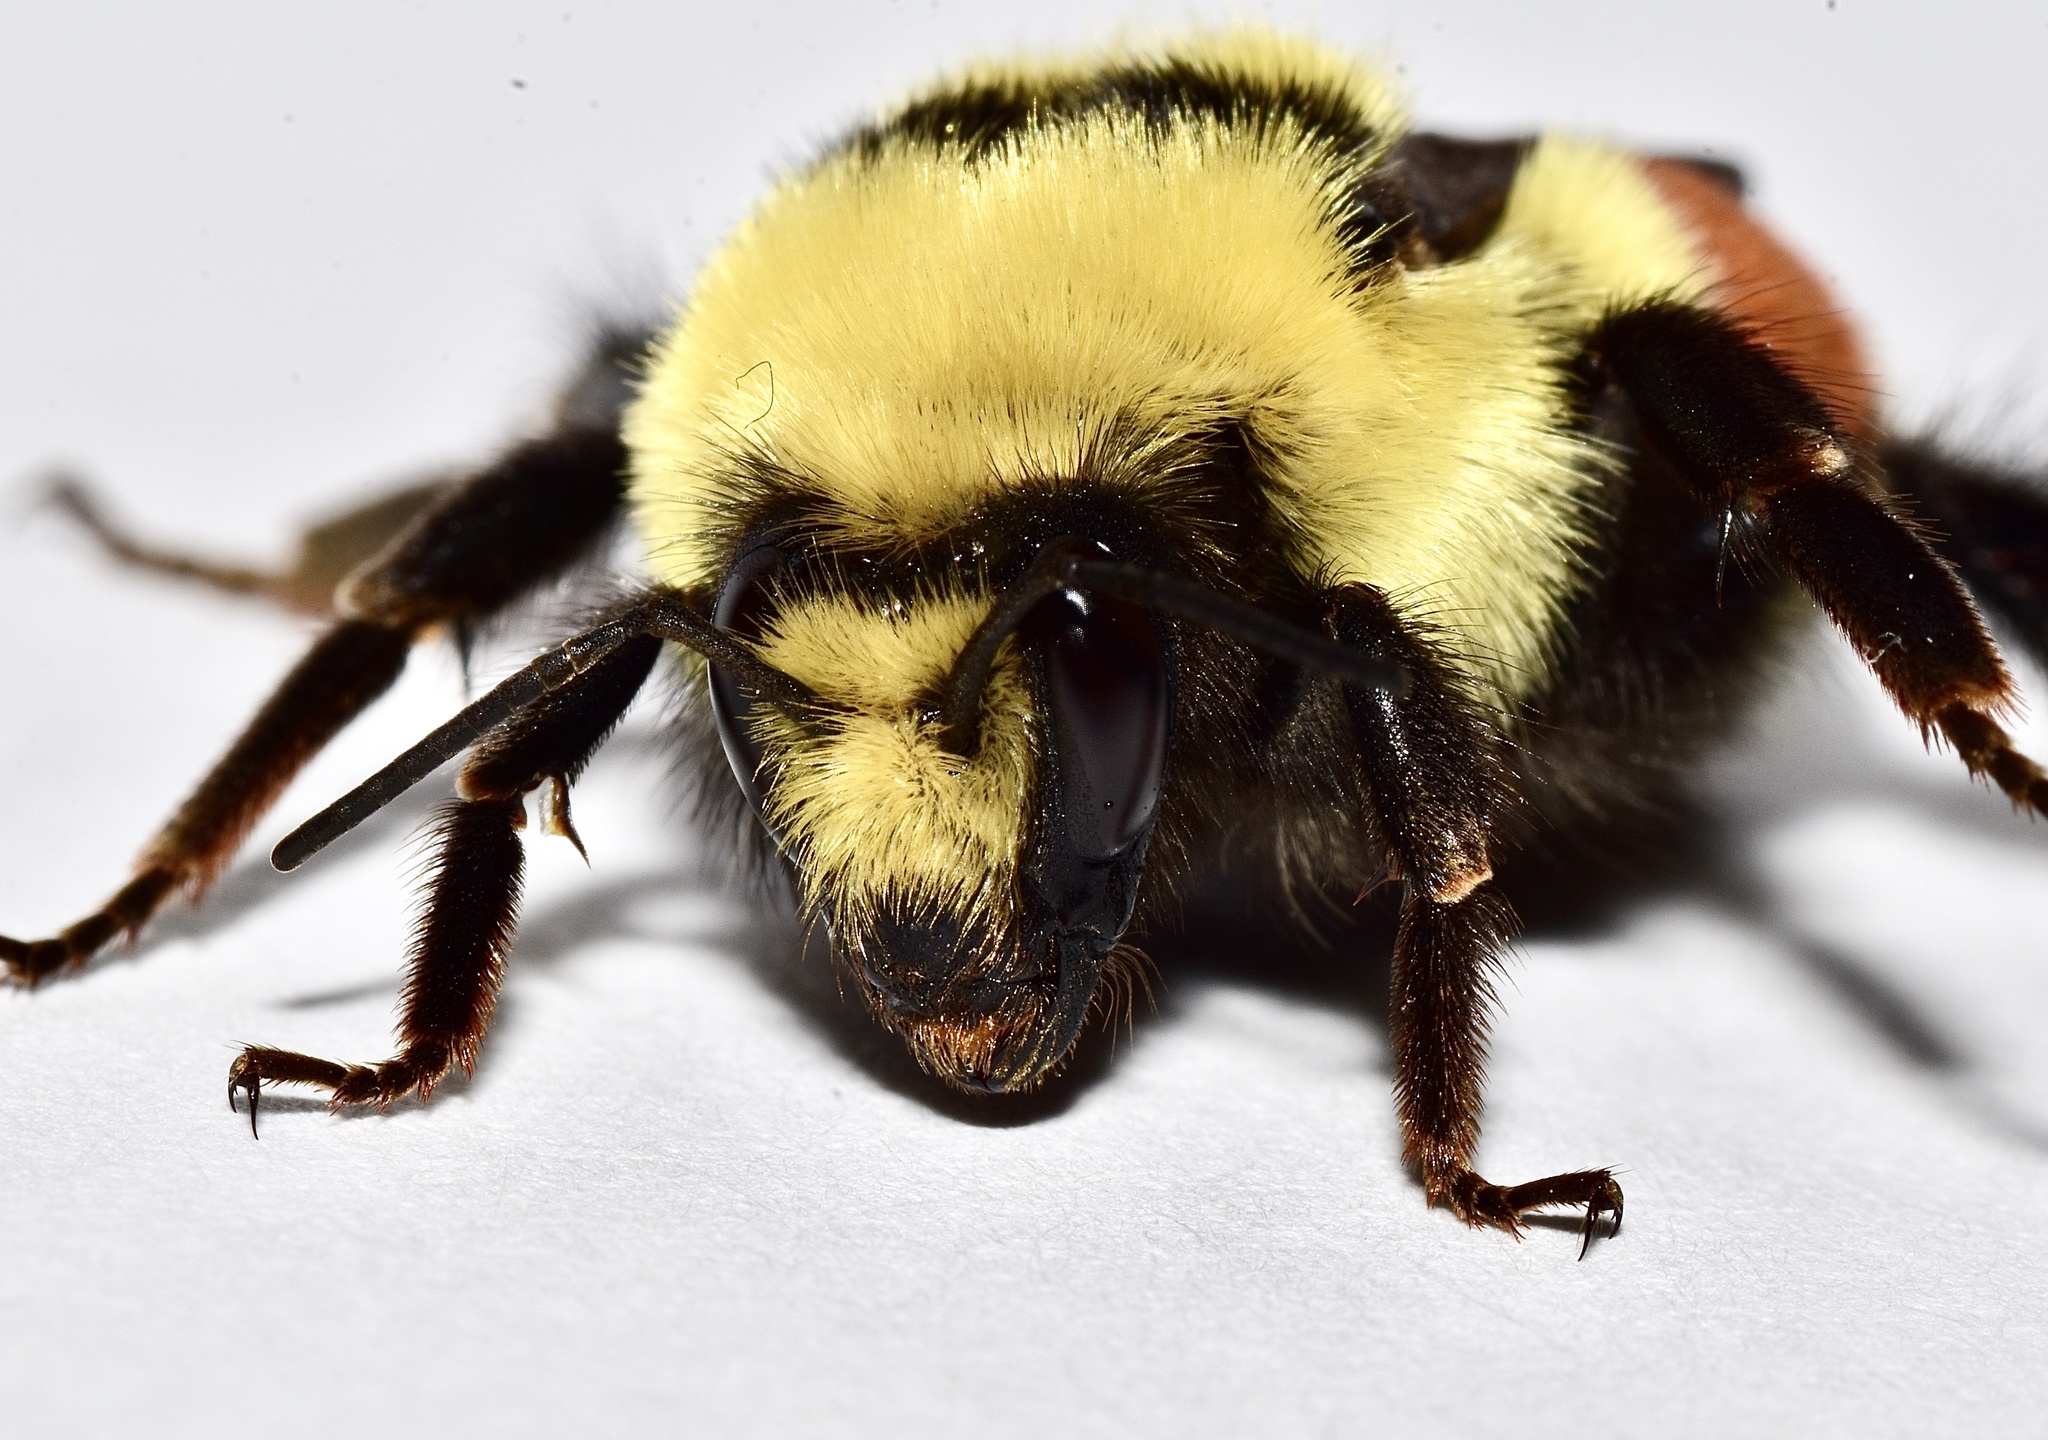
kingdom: Animalia
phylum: Arthropoda
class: Insecta
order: Hymenoptera
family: Apidae
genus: Bombus
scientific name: Bombus huntii
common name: Hunt bumble bee
